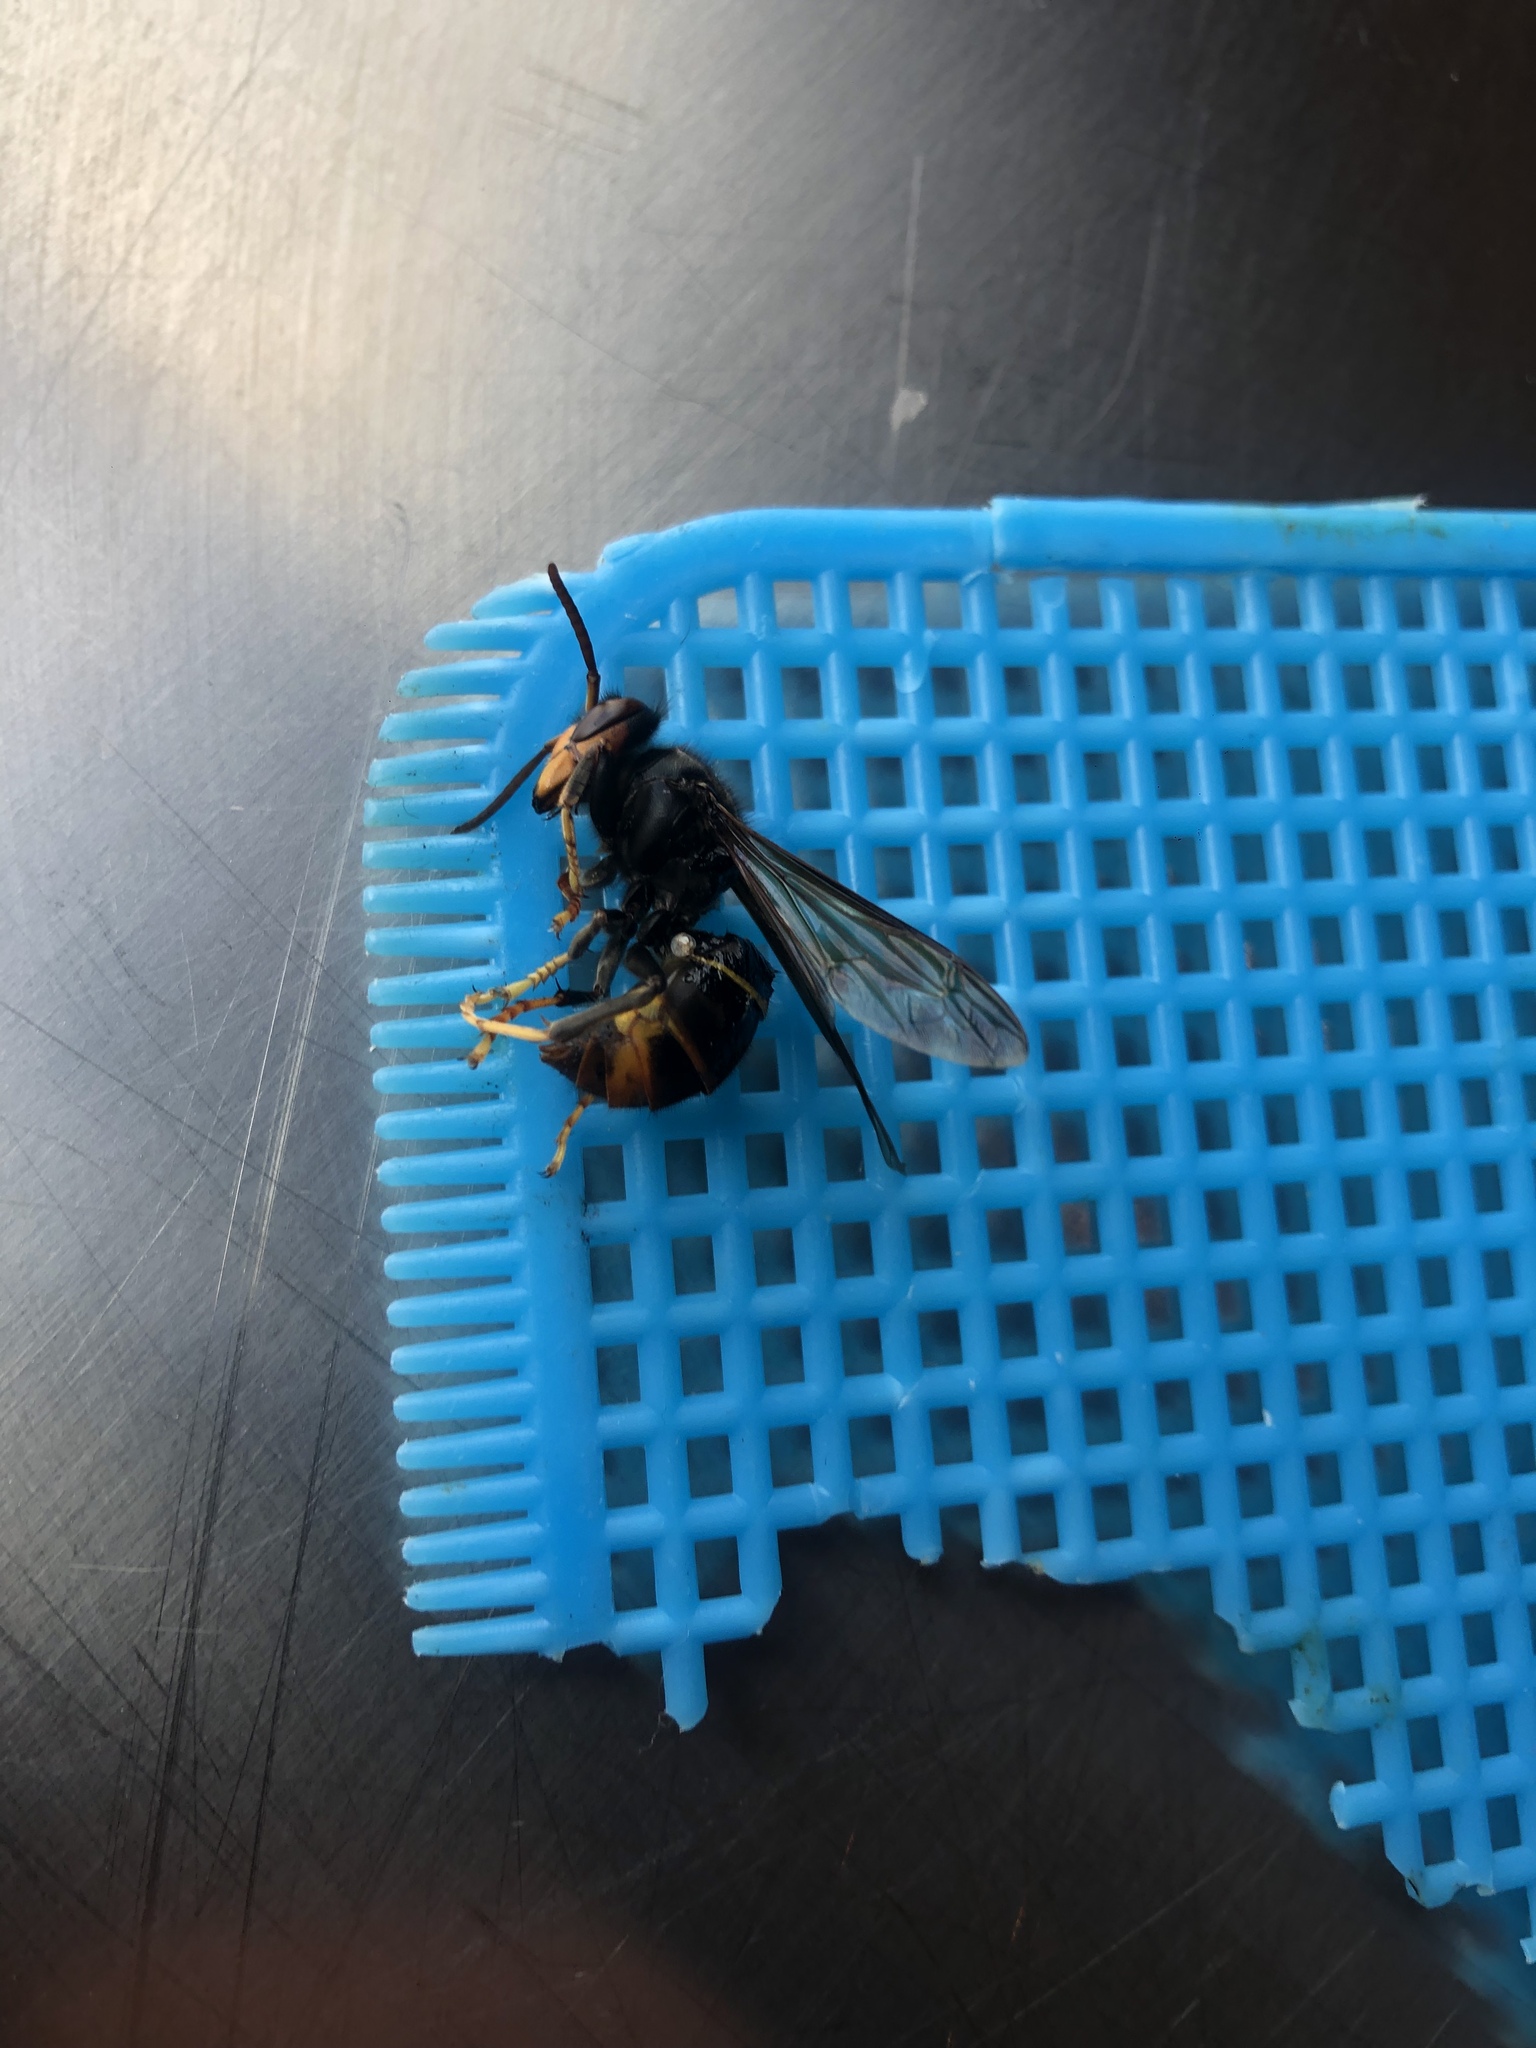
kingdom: Animalia
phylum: Arthropoda
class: Insecta
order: Hymenoptera
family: Vespidae
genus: Vespa
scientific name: Vespa velutina
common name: Asian hornet
